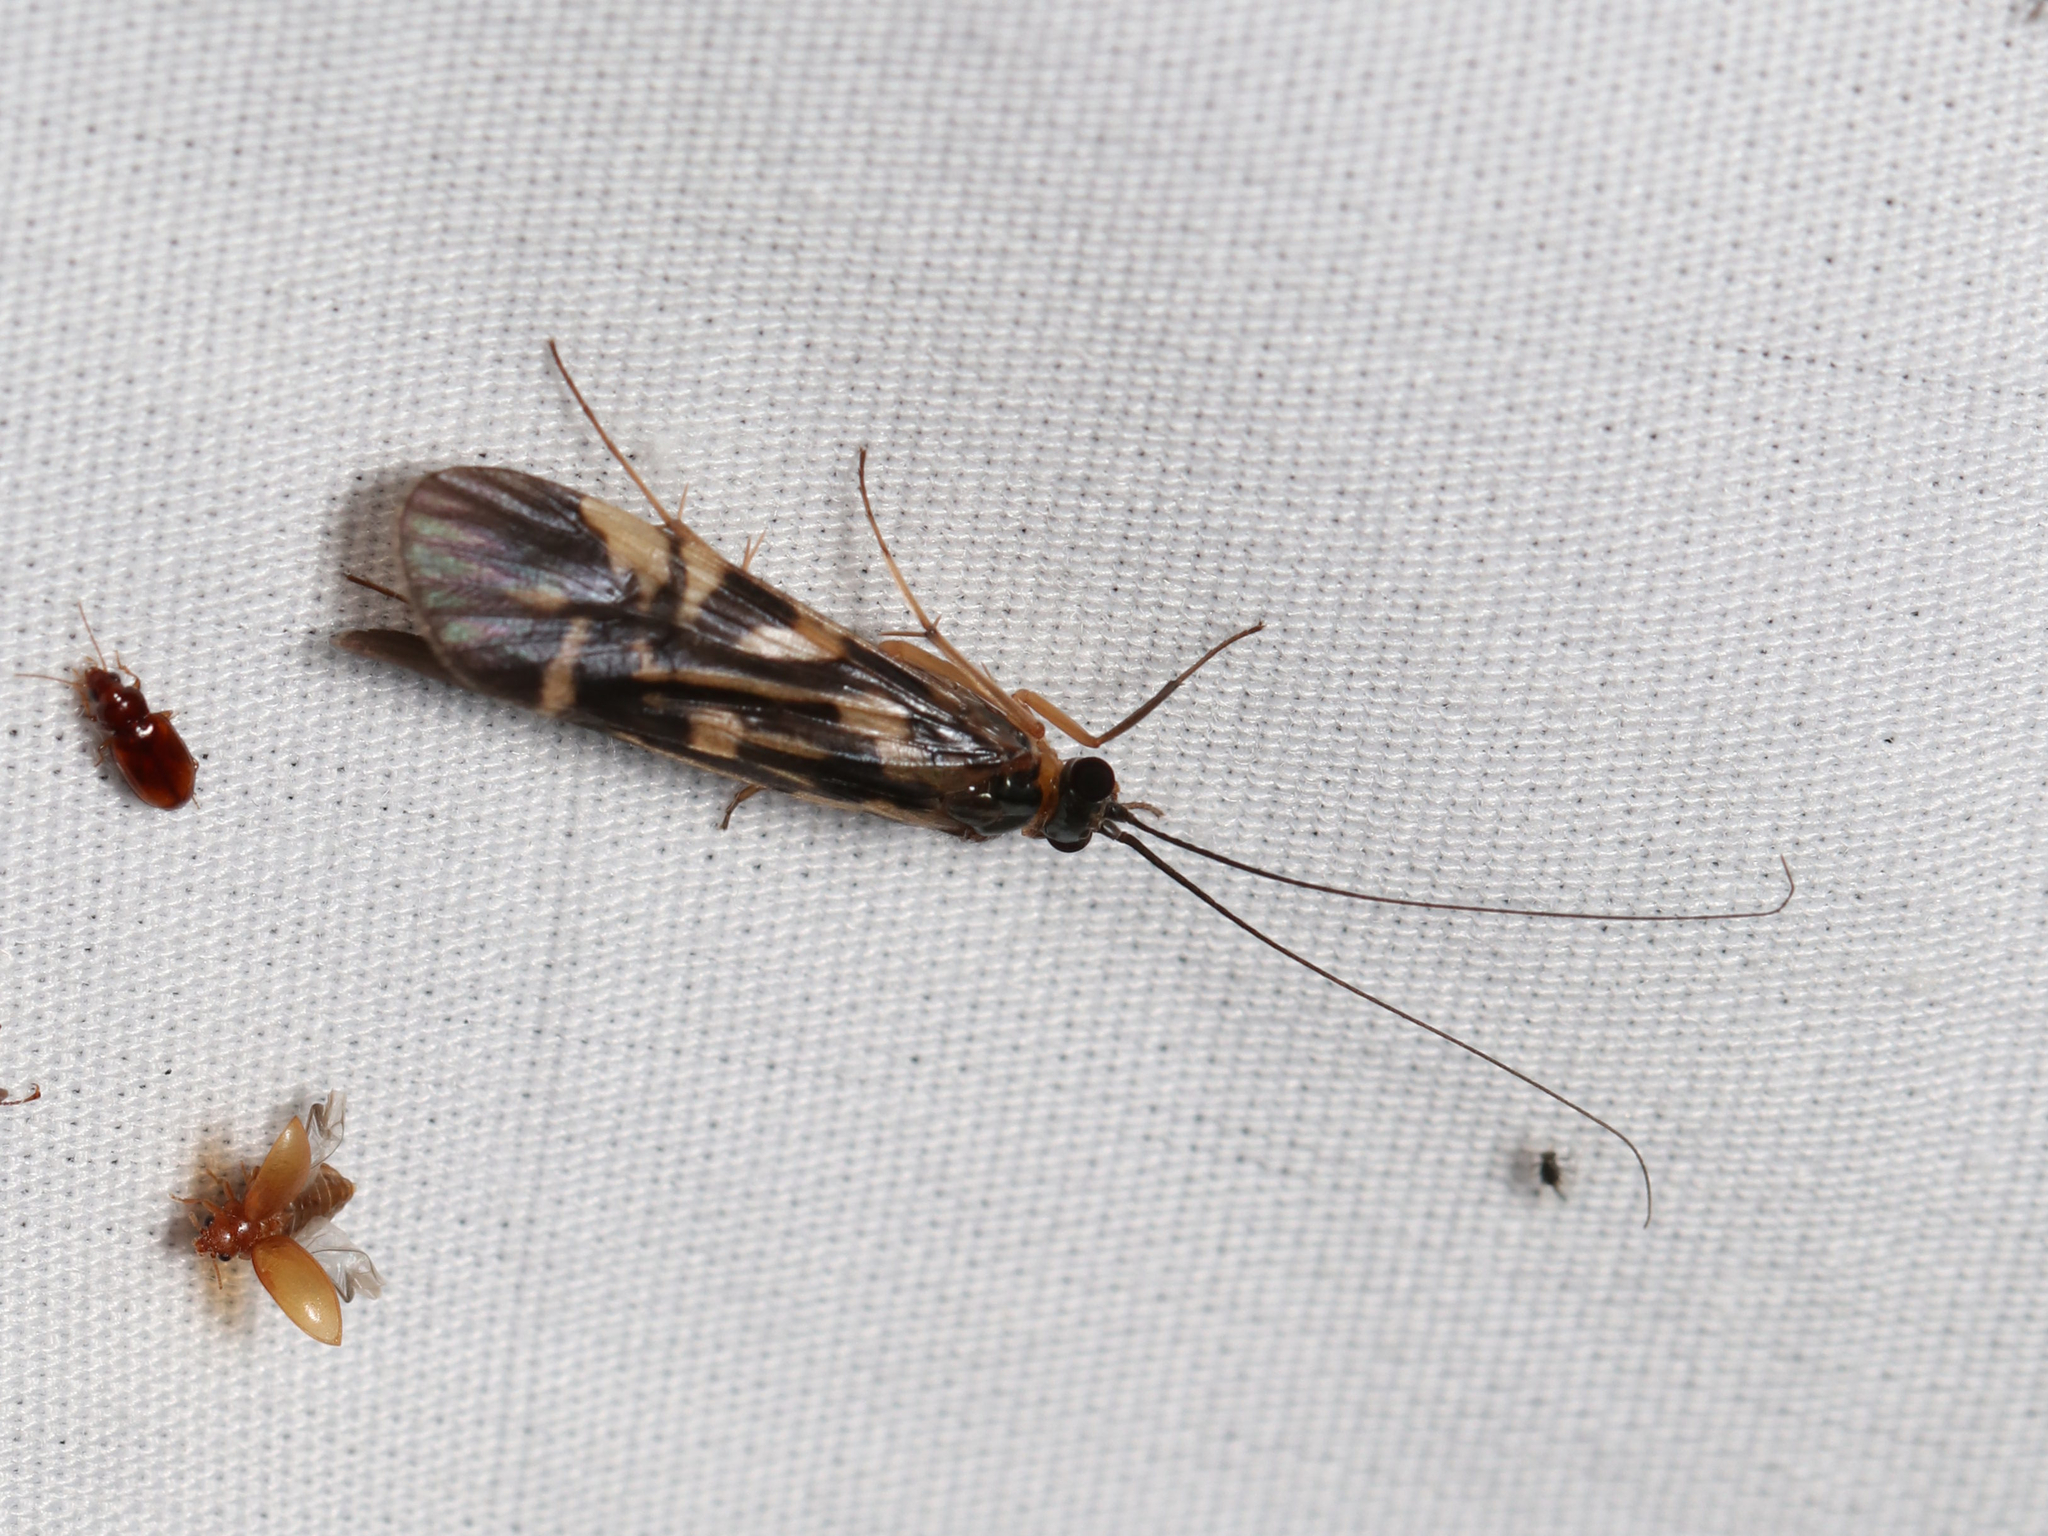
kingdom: Animalia
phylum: Arthropoda
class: Insecta
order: Trichoptera
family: Hydropsychidae
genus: Macrostemum
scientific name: Macrostemum carolina
